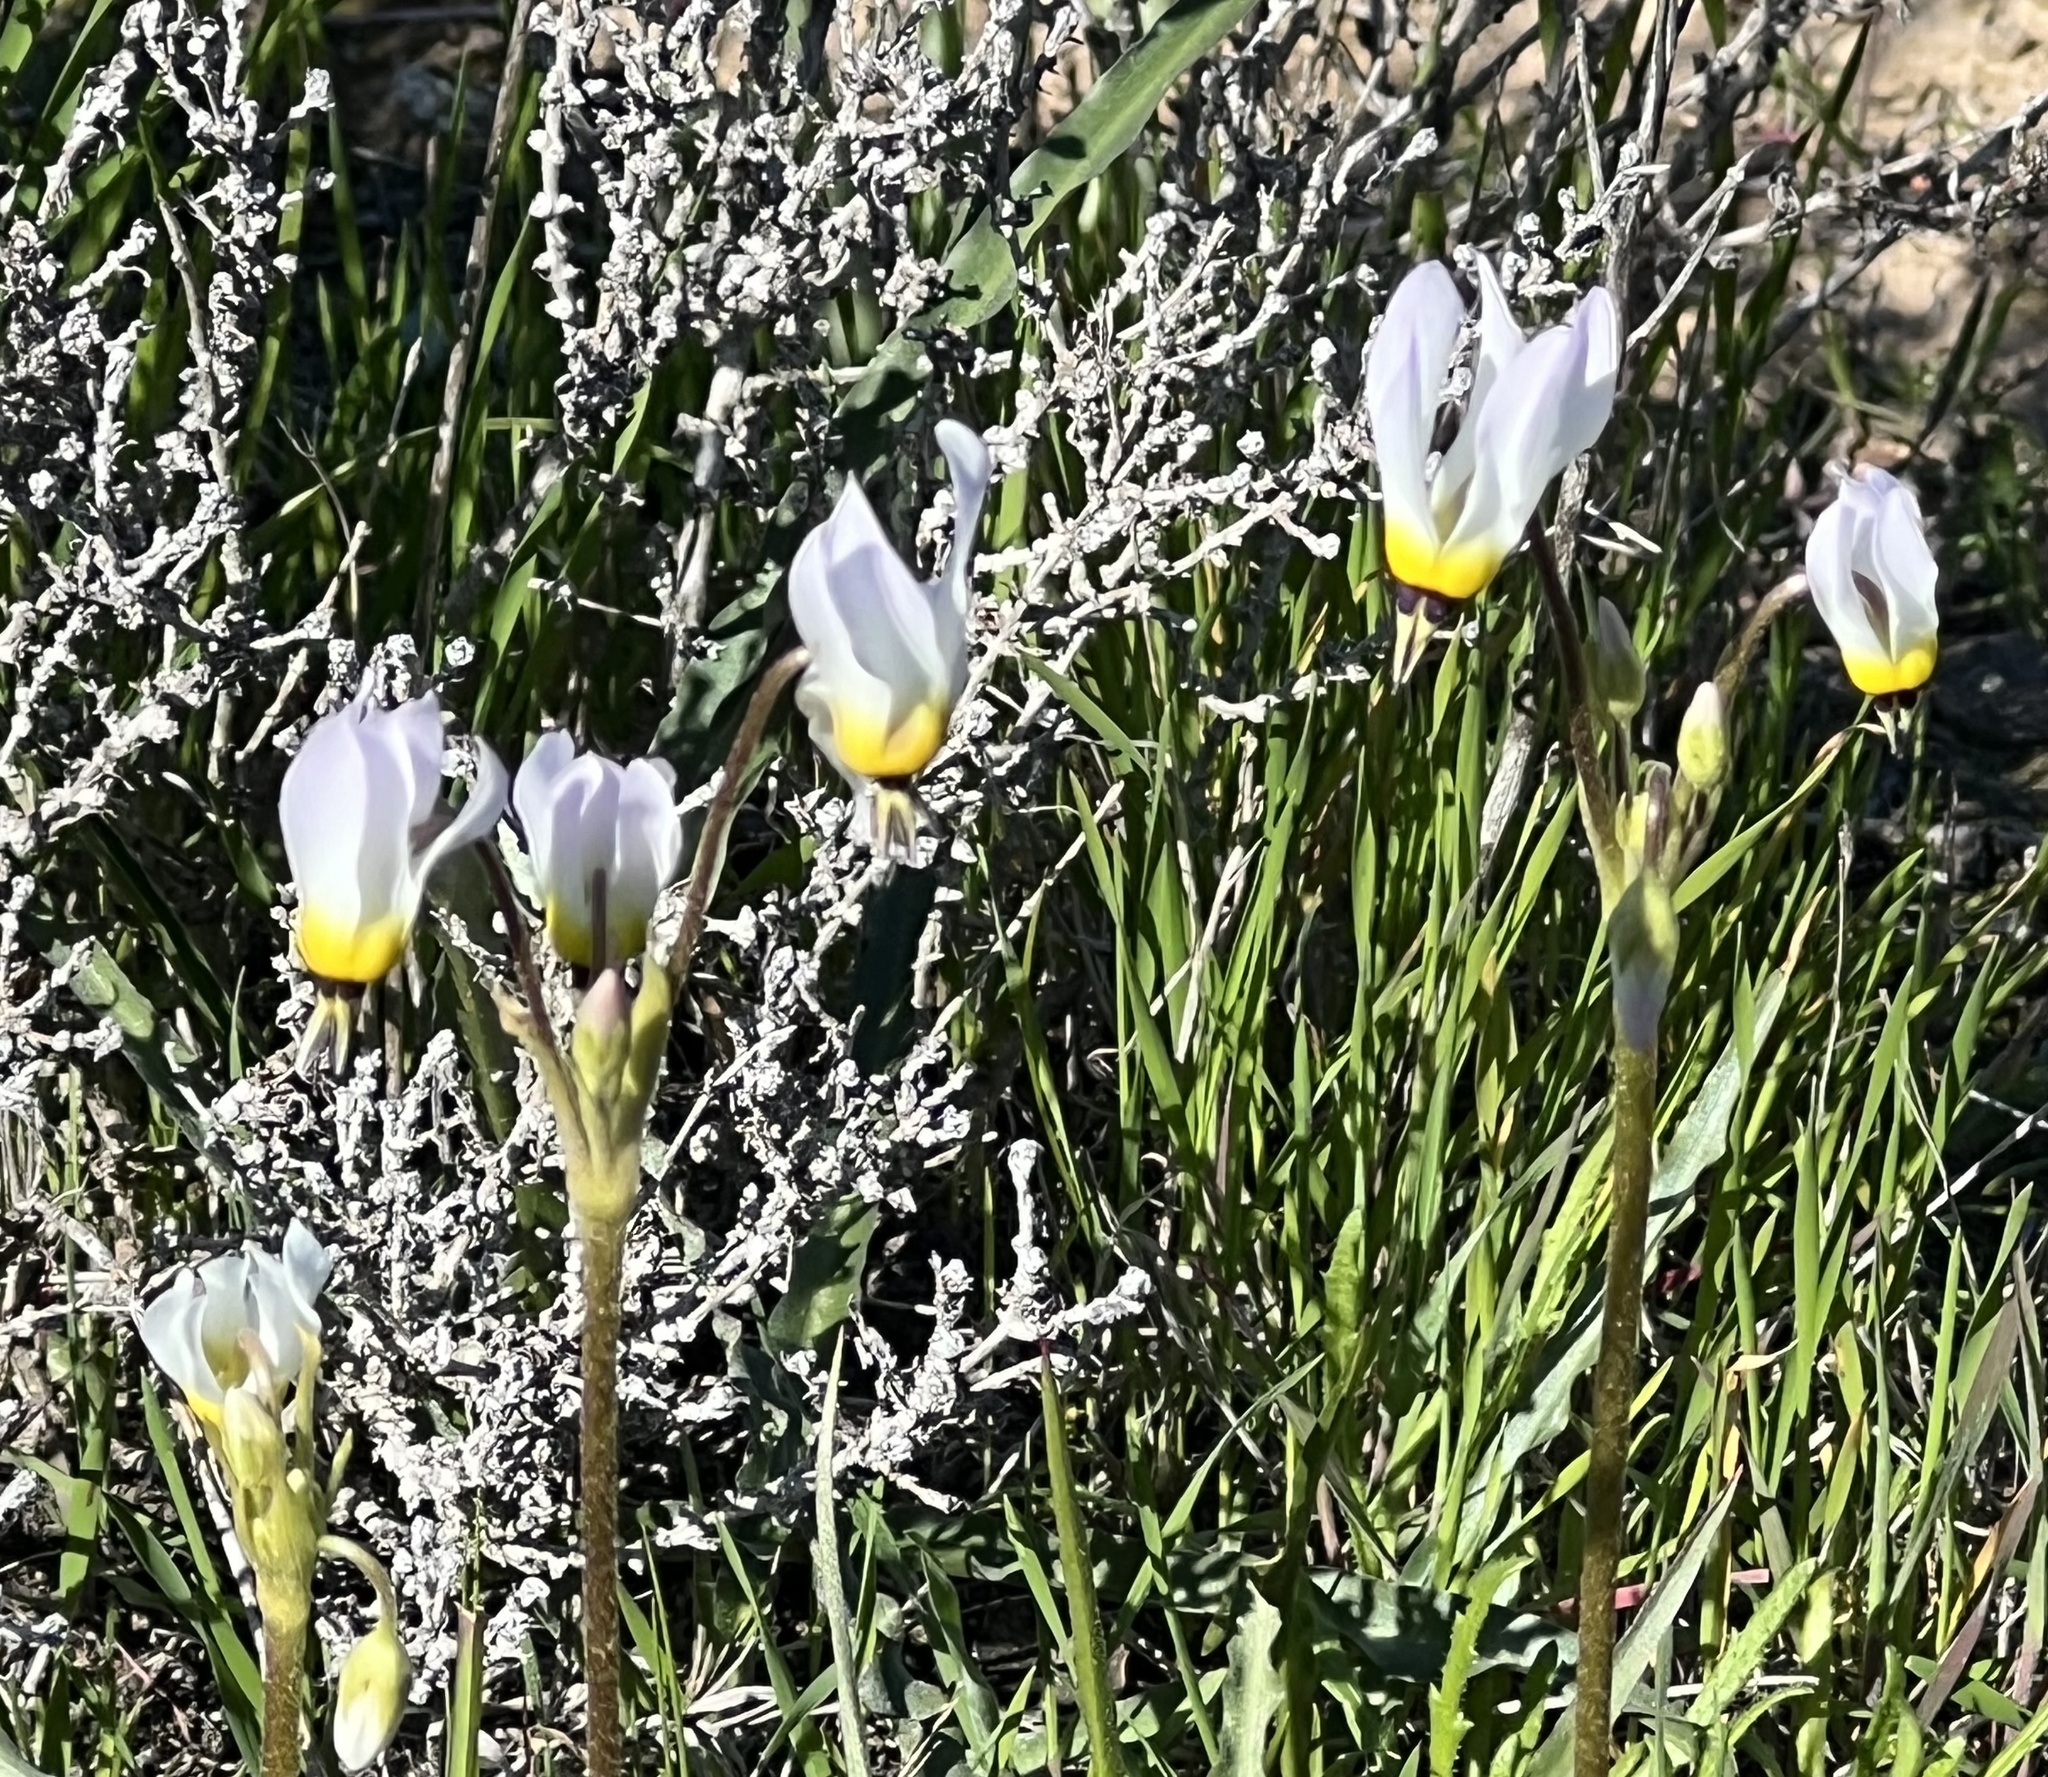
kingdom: Plantae
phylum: Tracheophyta
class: Magnoliopsida
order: Ericales
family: Primulaceae
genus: Dodecatheon
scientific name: Dodecatheon clevelandii
